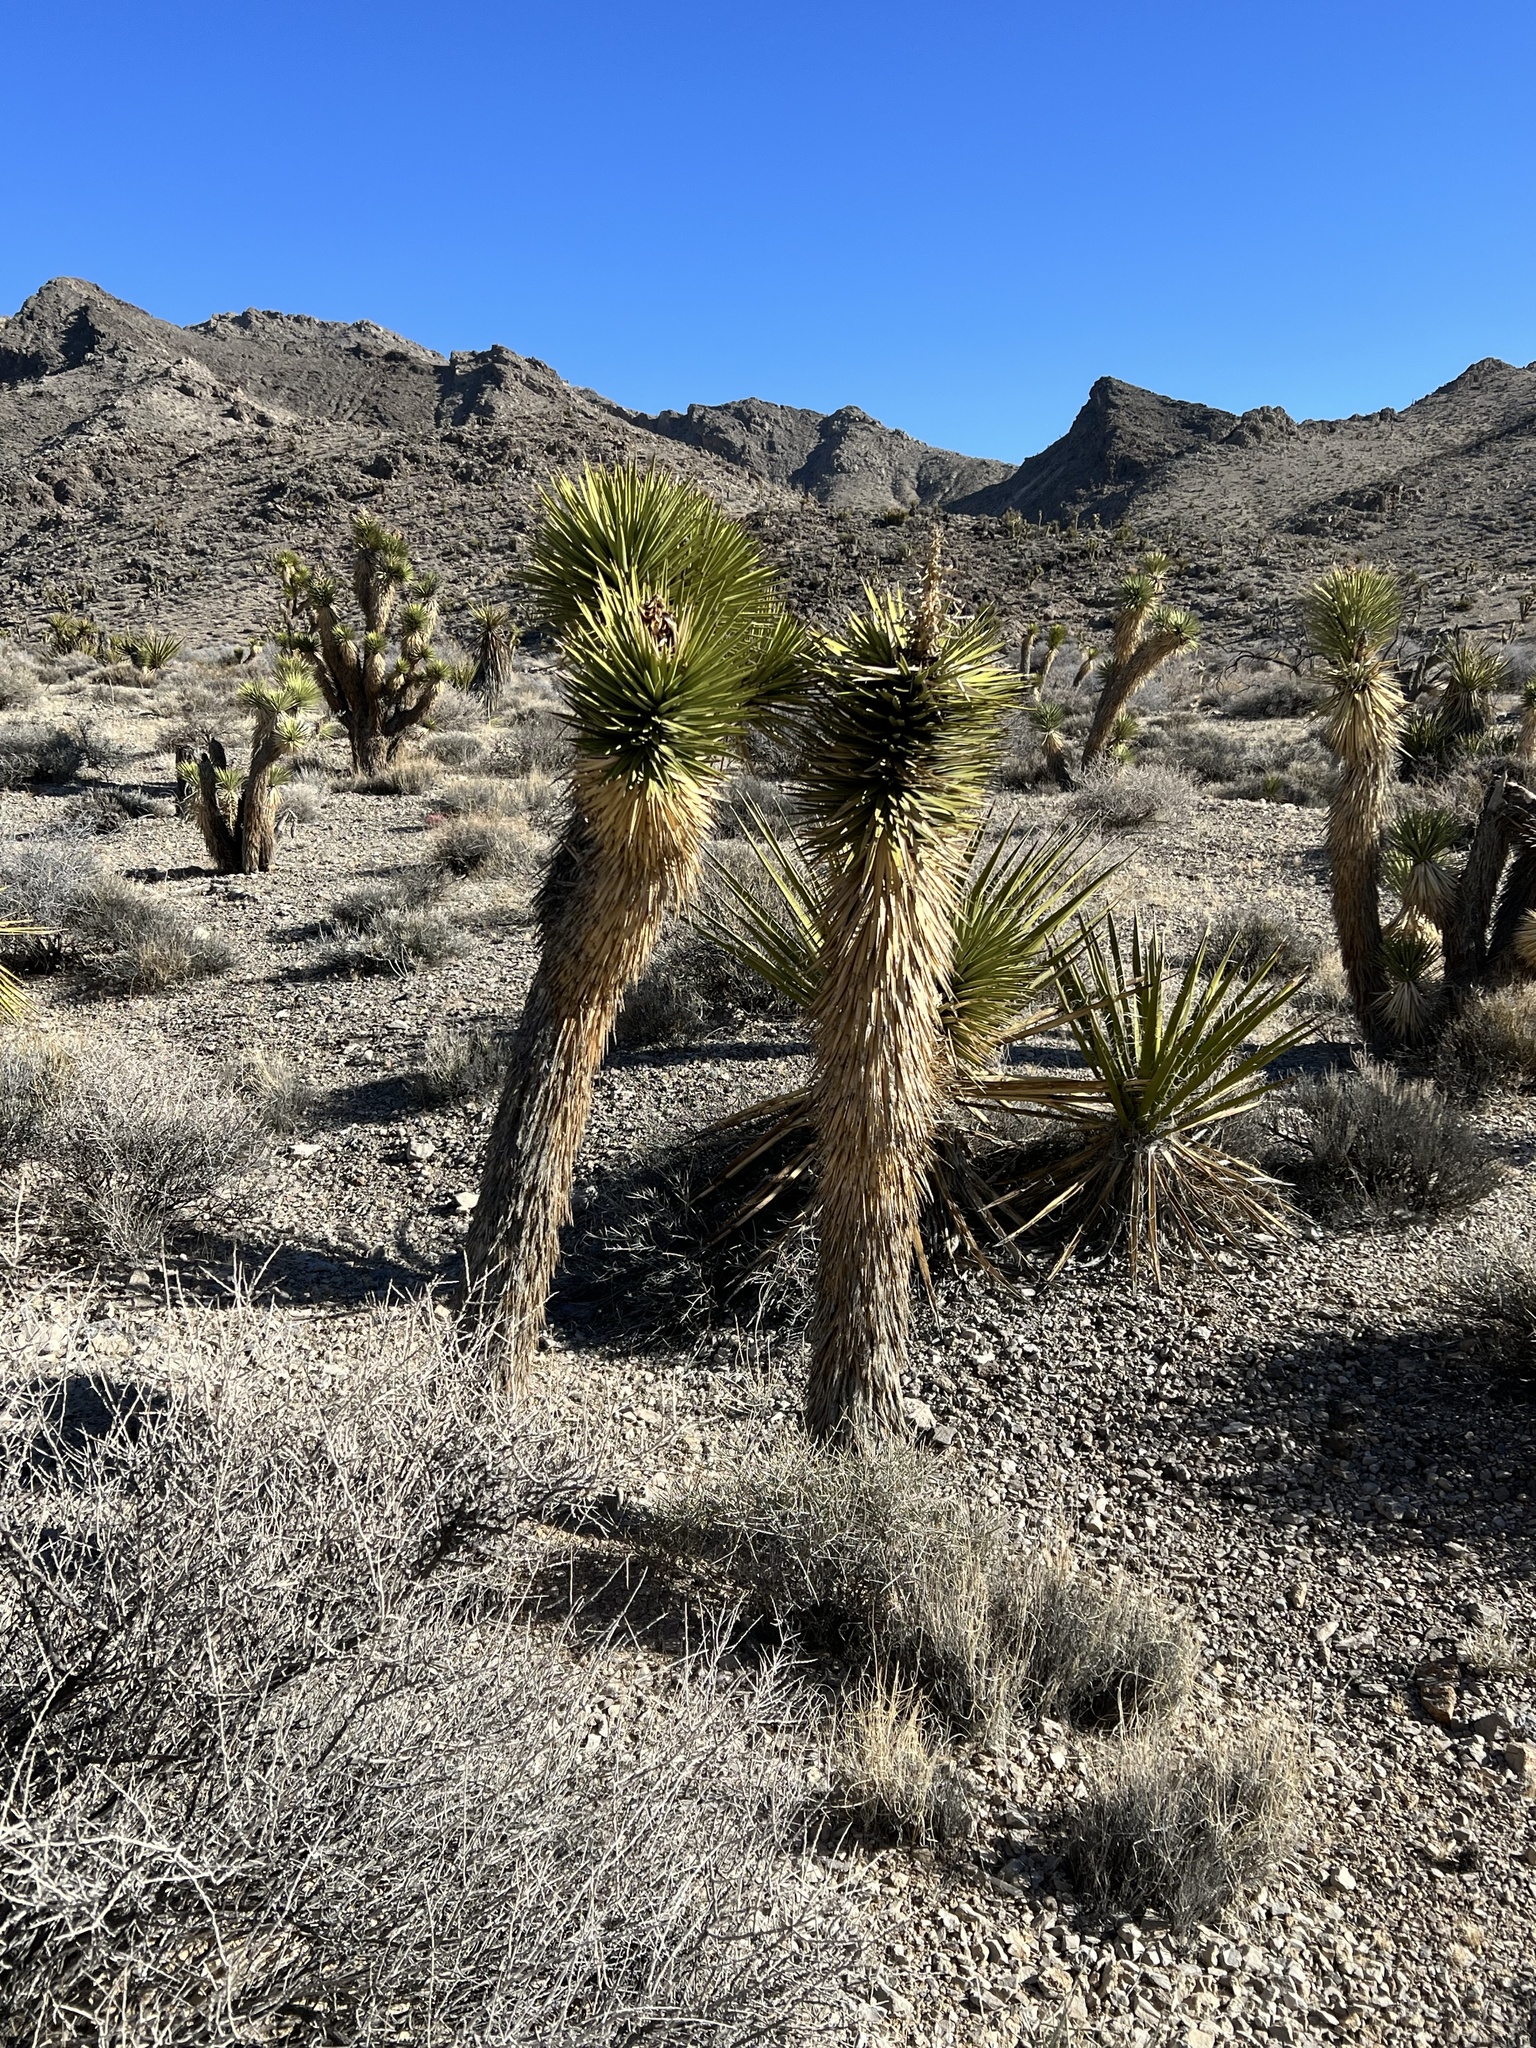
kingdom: Plantae
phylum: Tracheophyta
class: Liliopsida
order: Asparagales
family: Asparagaceae
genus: Yucca
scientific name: Yucca brevifolia
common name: Joshua tree
